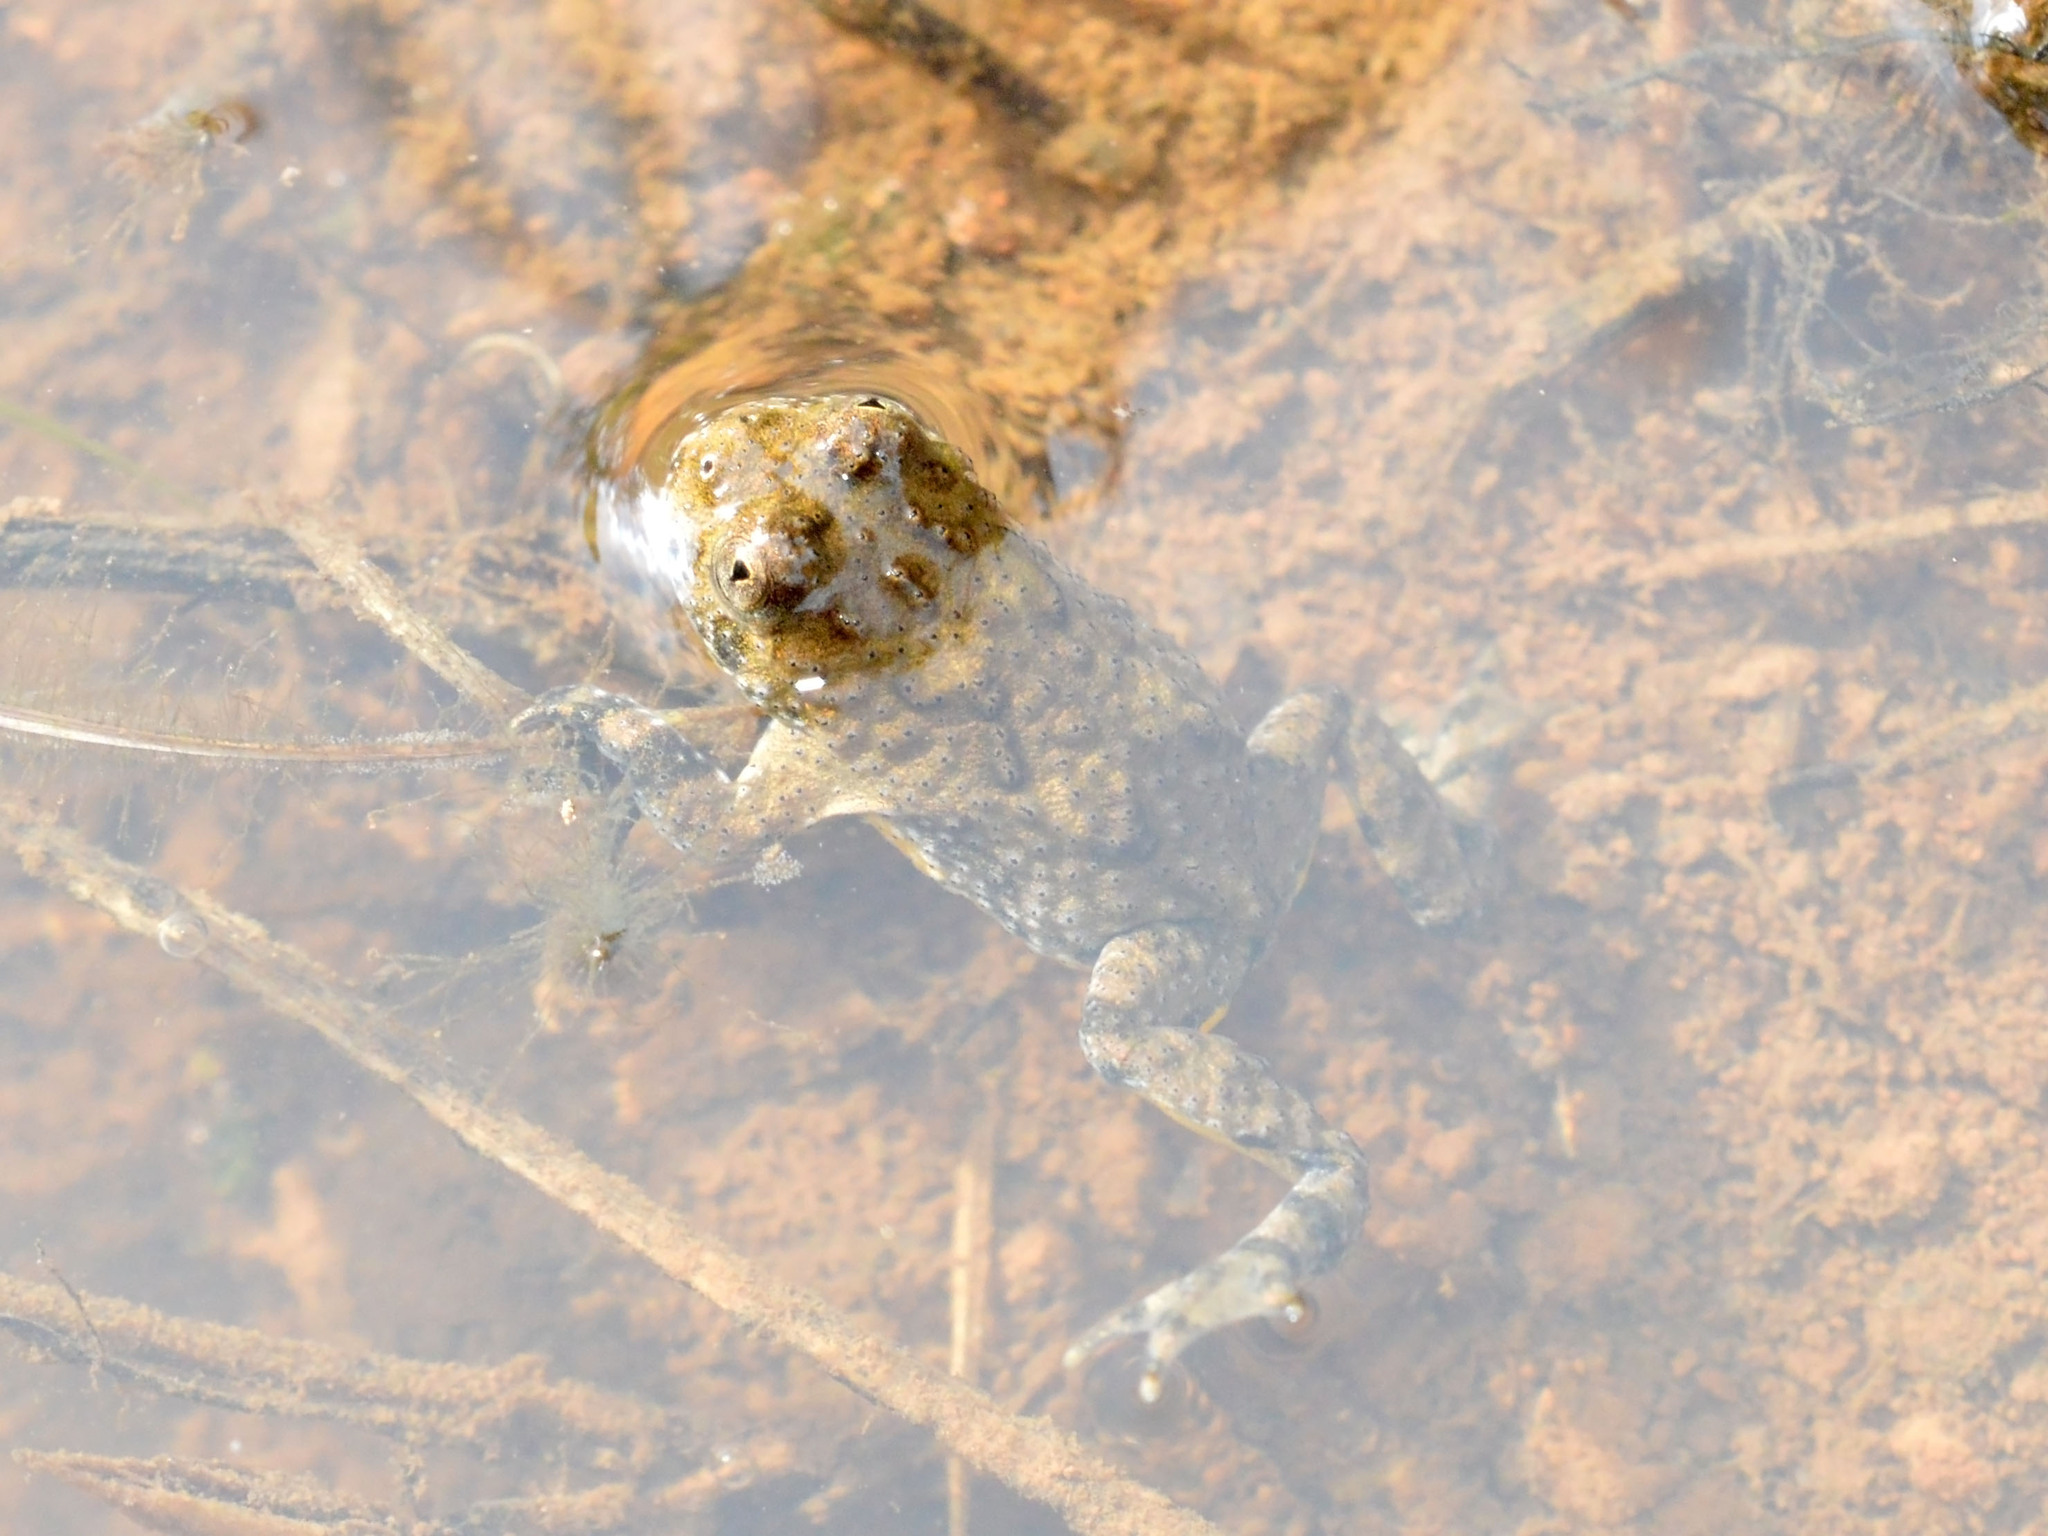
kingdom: Animalia
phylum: Chordata
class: Amphibia
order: Anura
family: Bombinatoridae
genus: Bombina
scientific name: Bombina variegata
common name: Yellow-bellied toad
